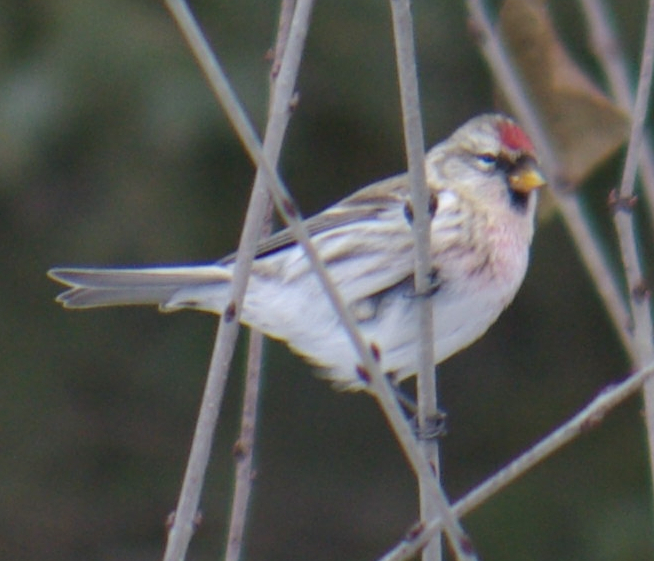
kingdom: Animalia
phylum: Chordata
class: Aves
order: Passeriformes
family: Fringillidae
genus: Acanthis
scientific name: Acanthis flammea
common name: Common redpoll
